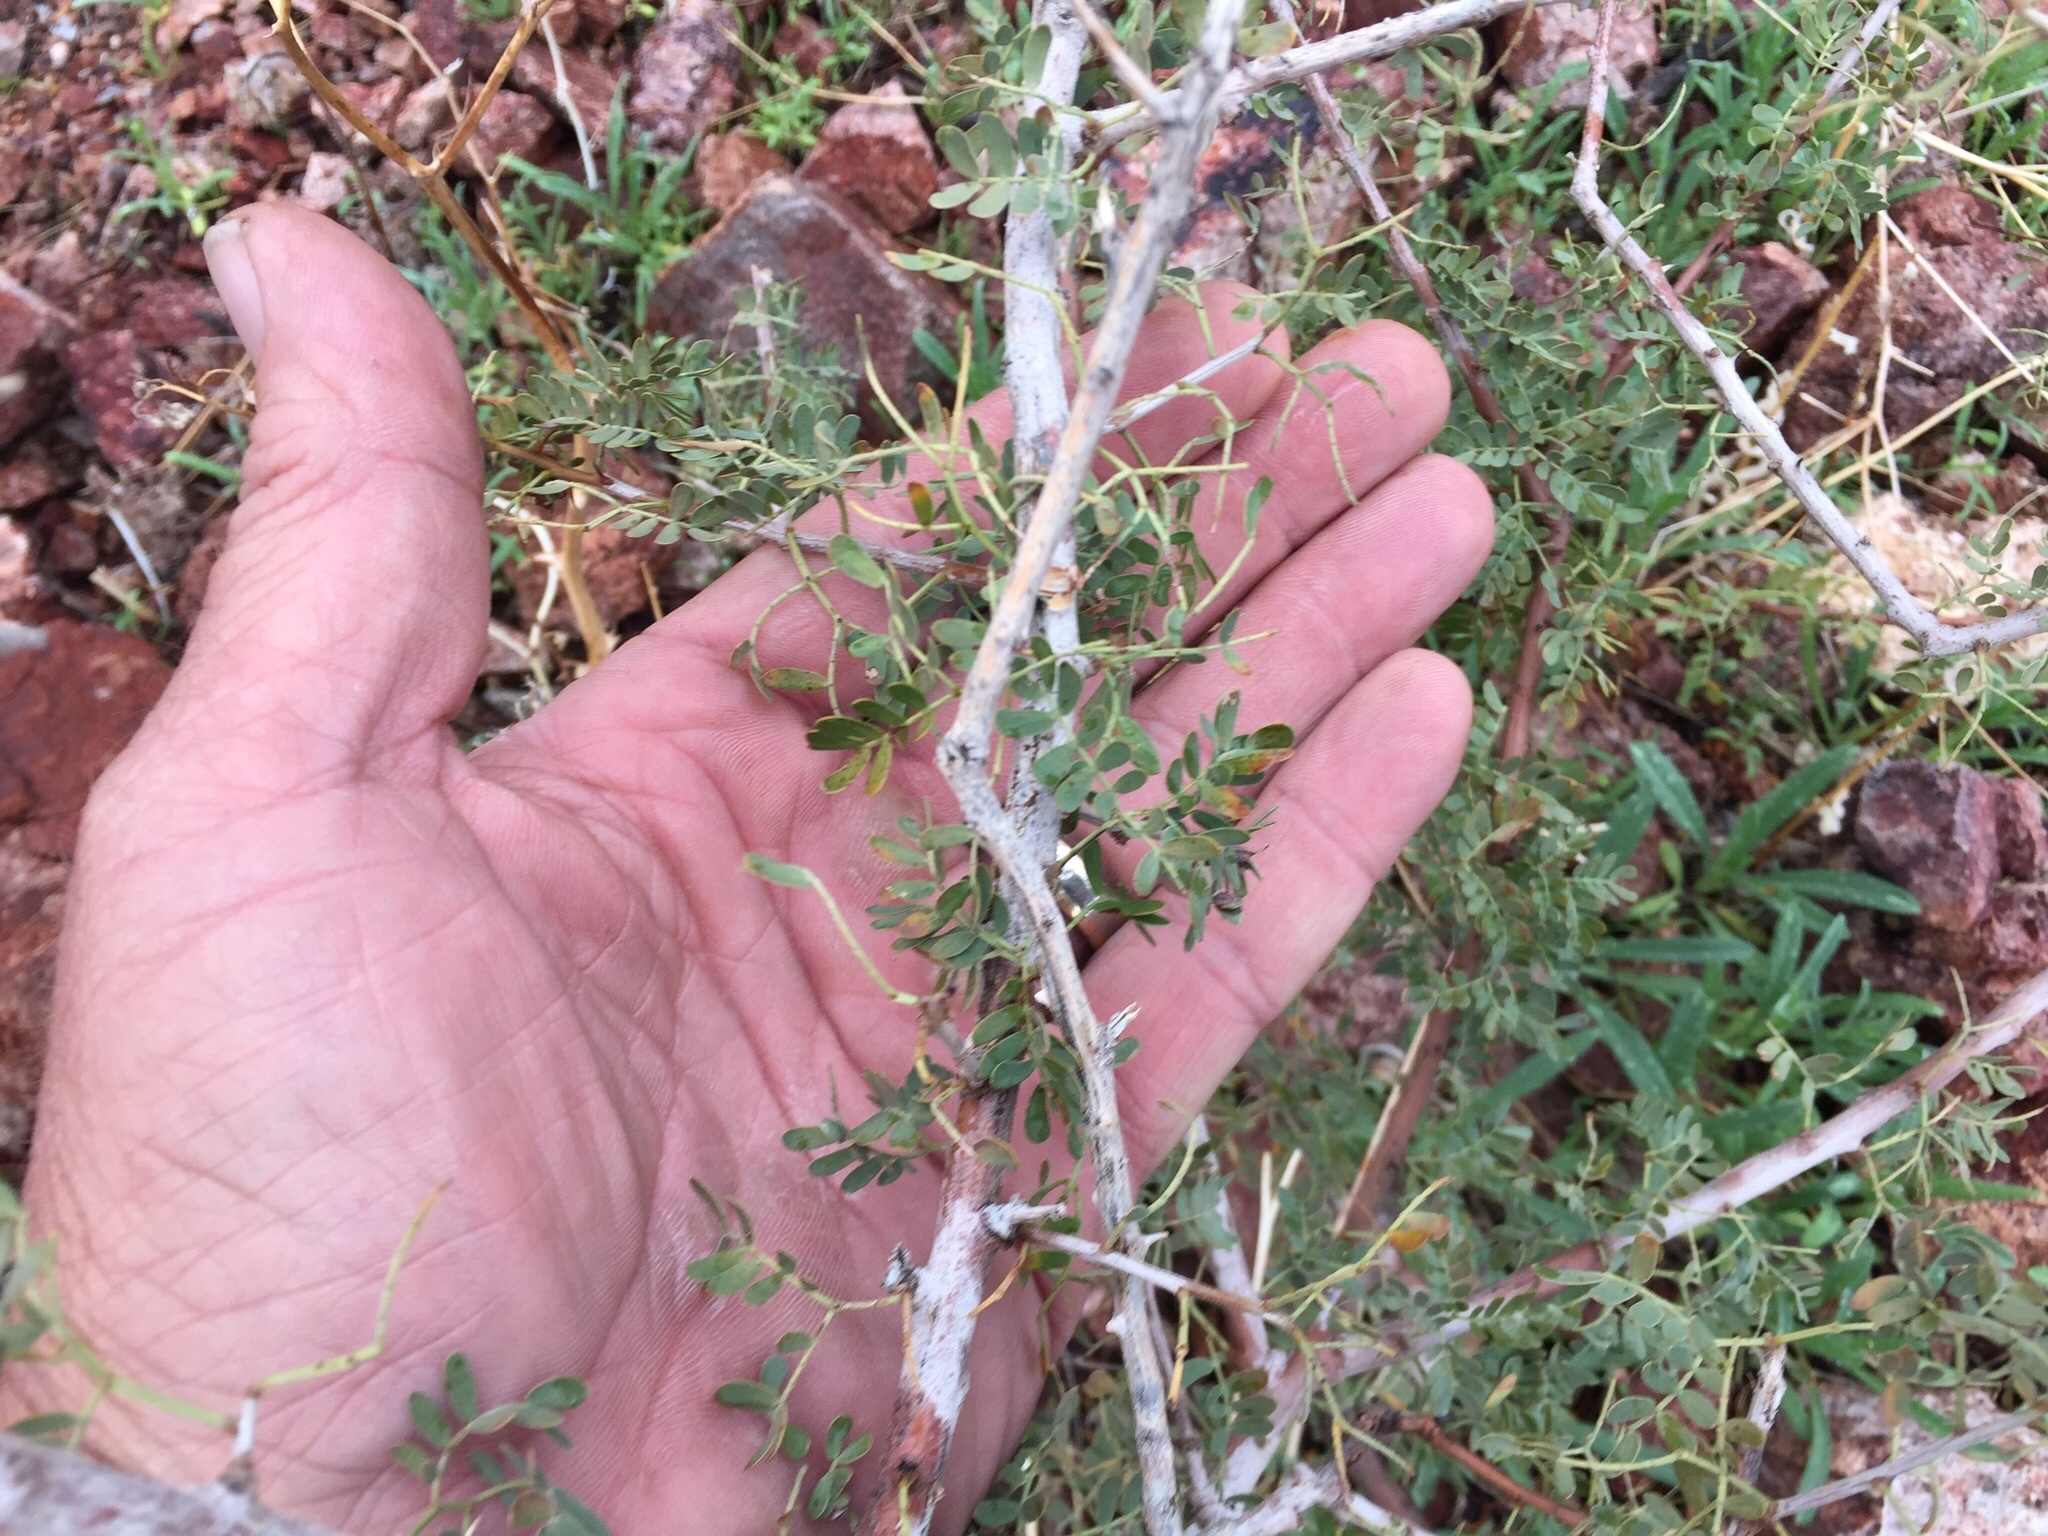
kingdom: Plantae
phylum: Tracheophyta
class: Magnoliopsida
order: Fabales
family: Fabaceae
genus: Senegalia
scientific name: Senegalia greggii
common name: Texas-mimosa
